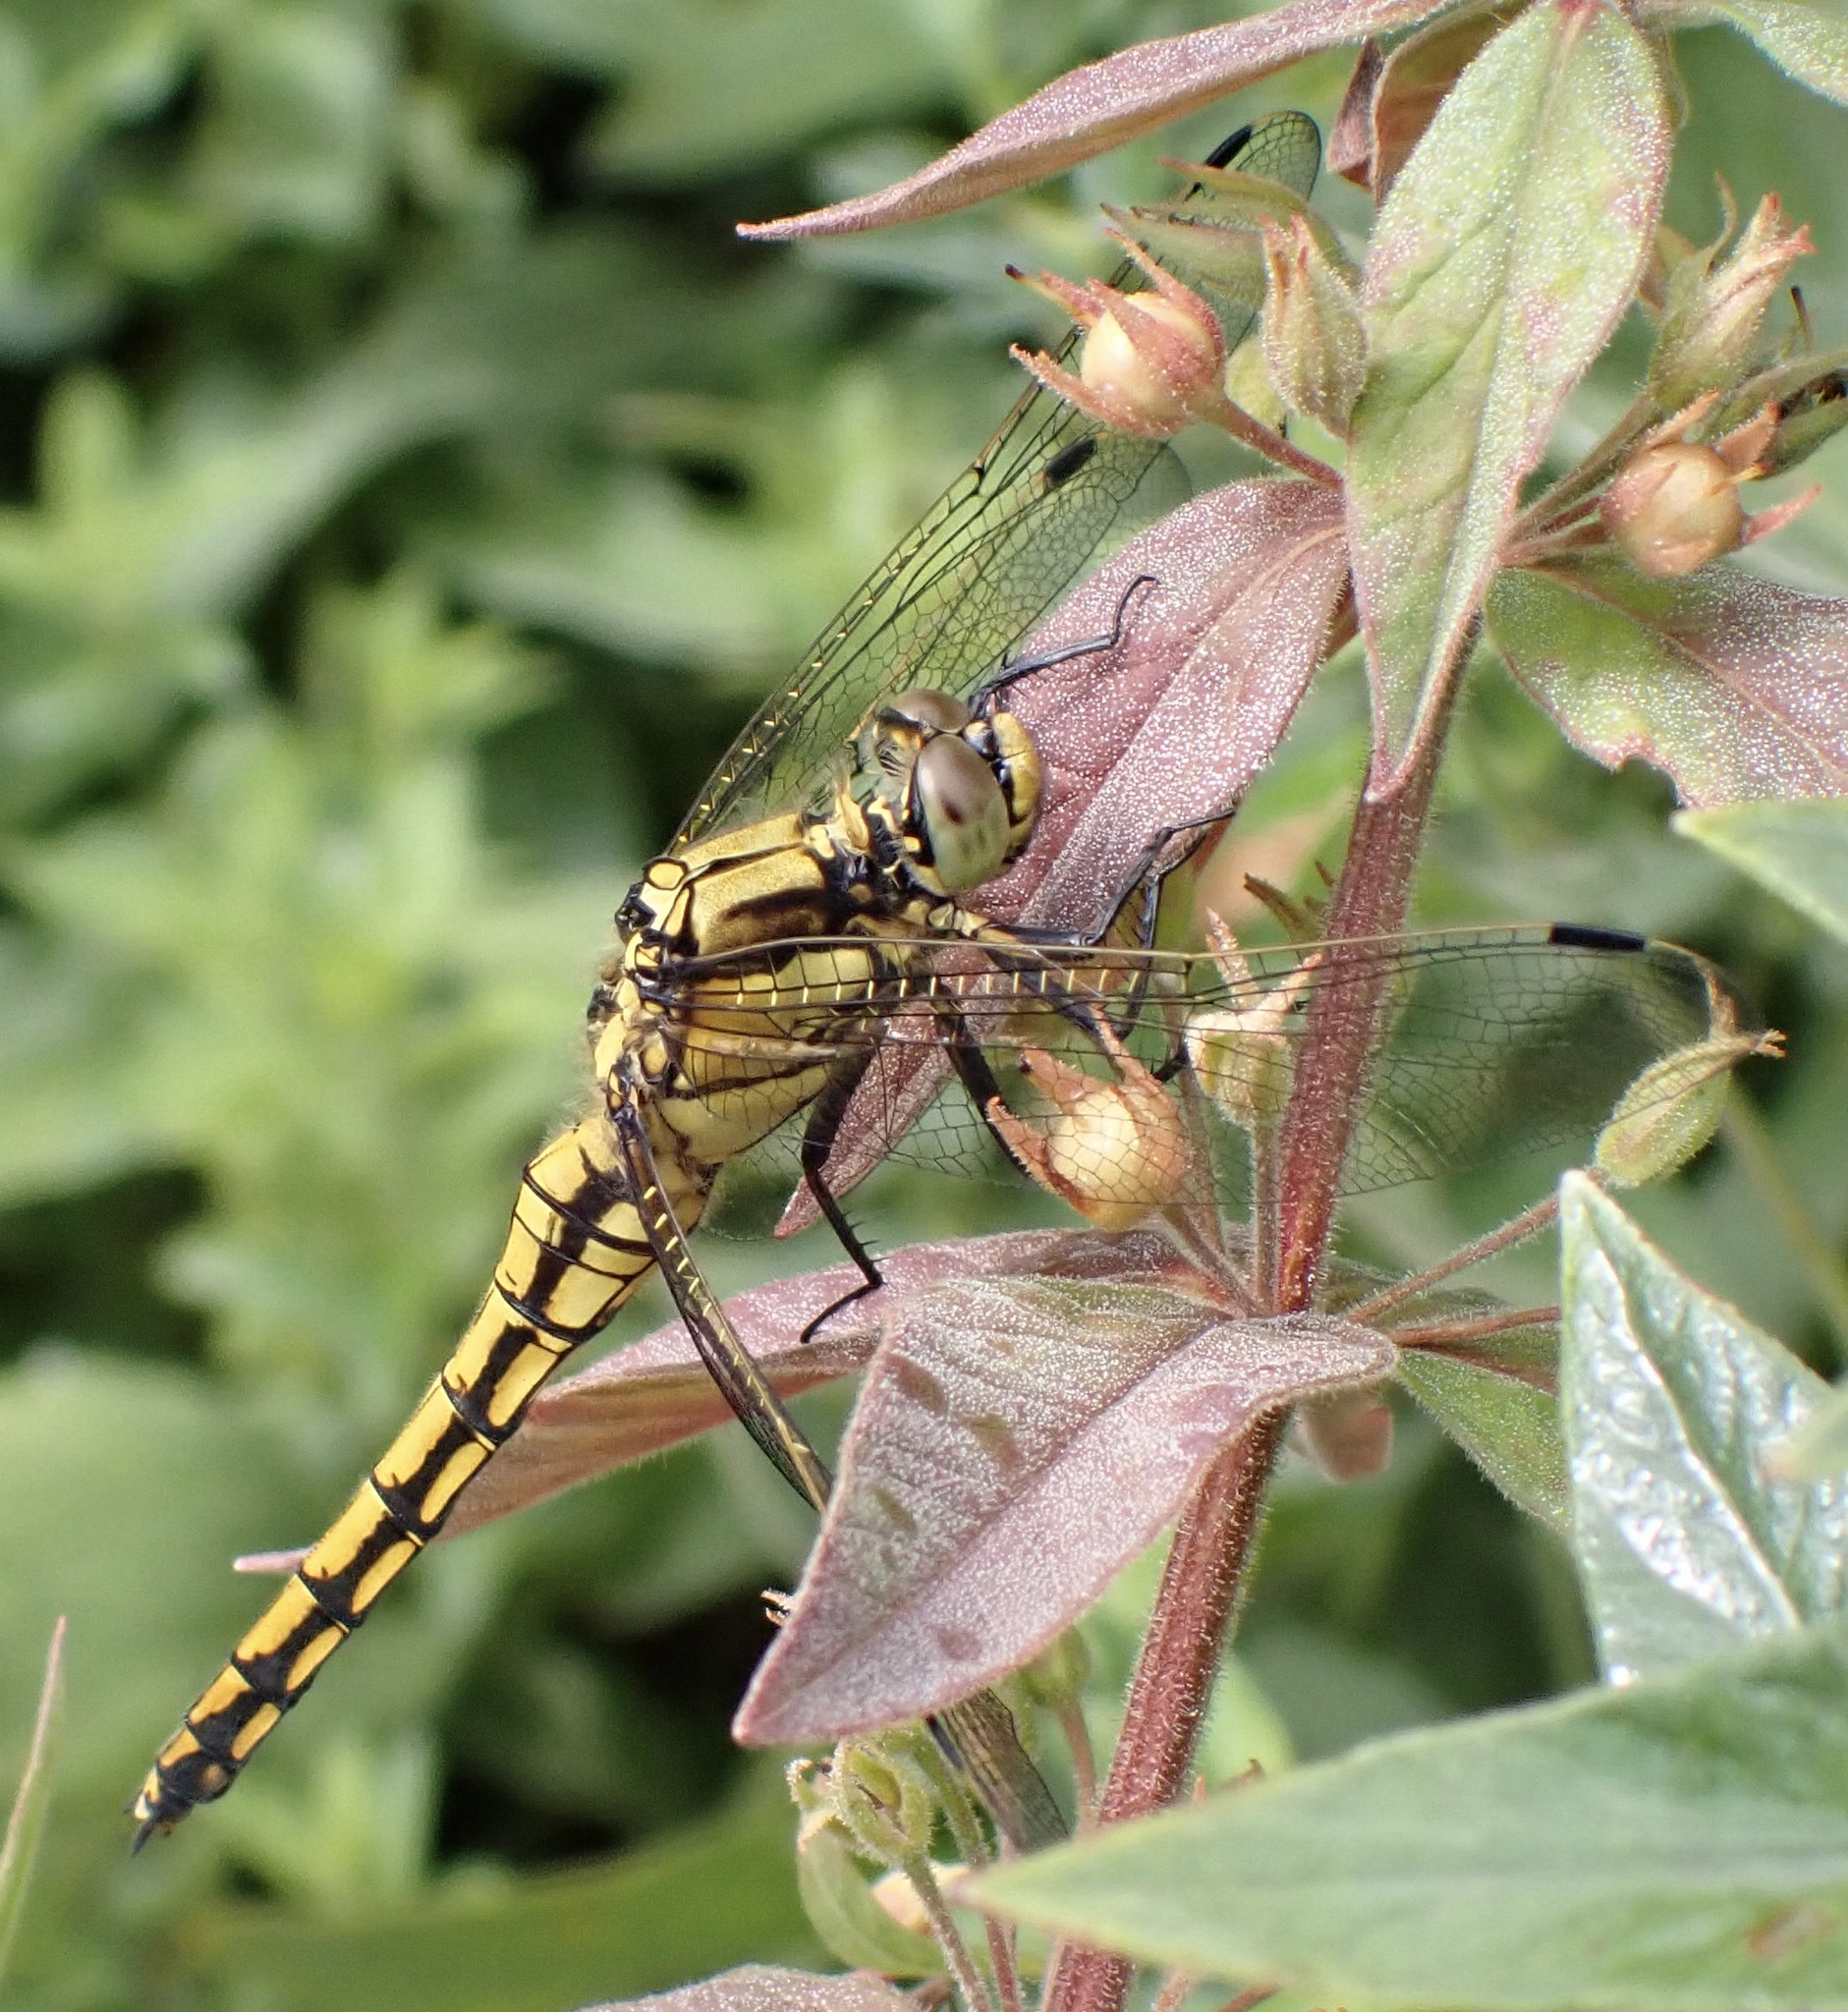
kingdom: Animalia
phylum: Arthropoda
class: Insecta
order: Odonata
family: Libellulidae
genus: Orthetrum
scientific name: Orthetrum cancellatum
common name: Black-tailed skimmer
